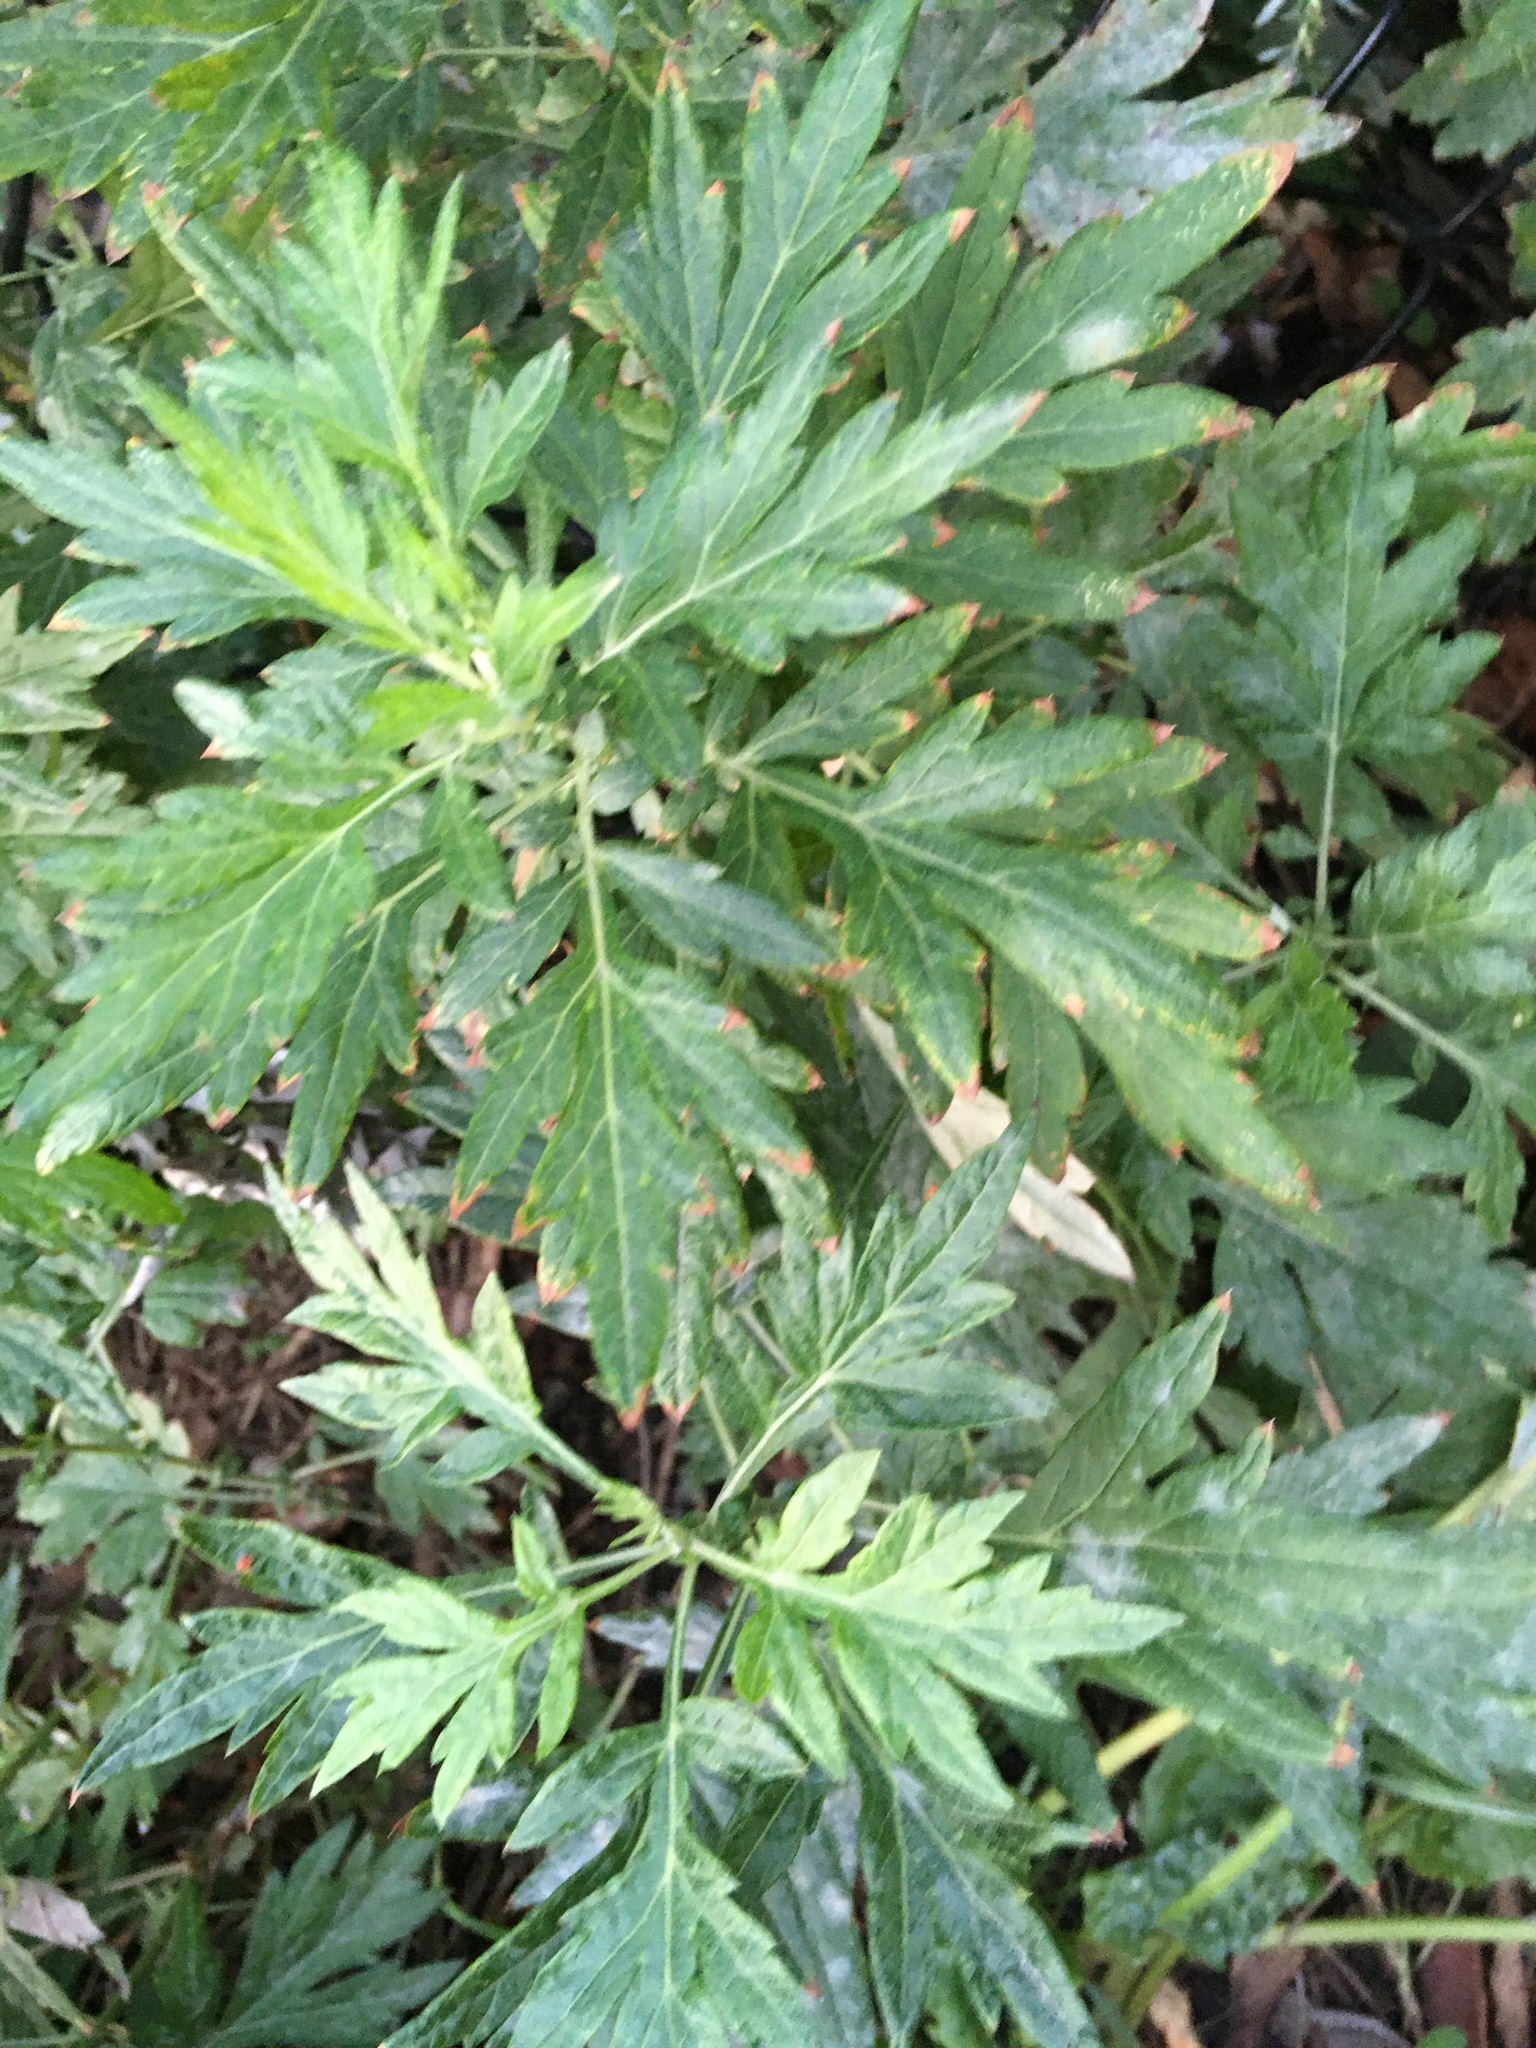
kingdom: Plantae
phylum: Tracheophyta
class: Magnoliopsida
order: Asterales
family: Asteraceae
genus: Artemisia
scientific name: Artemisia vulgaris
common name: Mugwort
